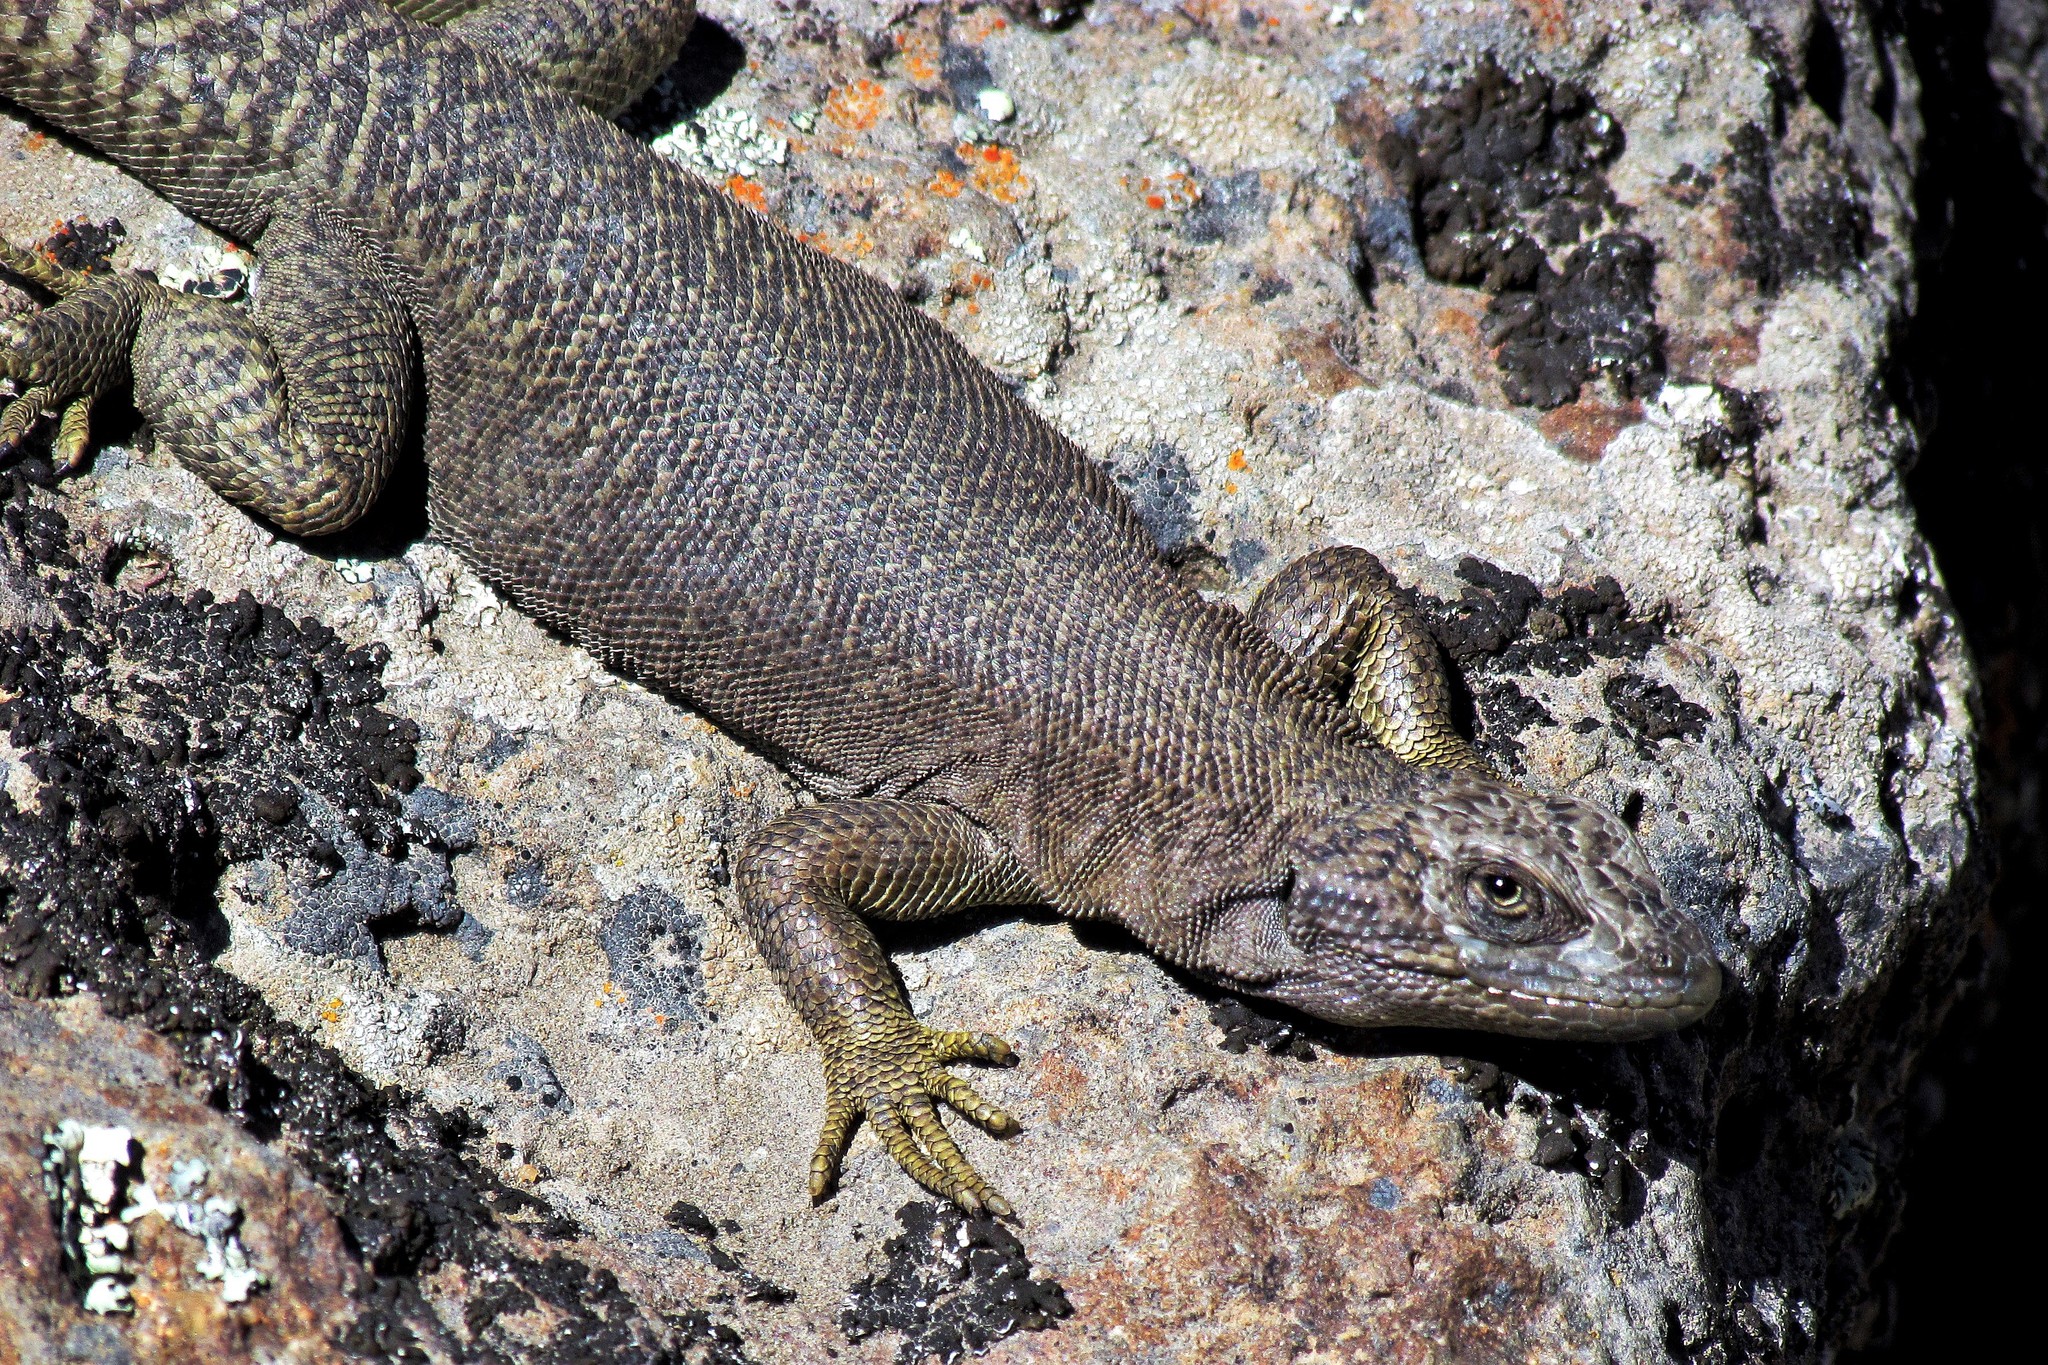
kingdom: Animalia
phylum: Chordata
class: Squamata
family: Liolaemidae
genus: Liolaemus
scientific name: Liolaemus petrophilus
